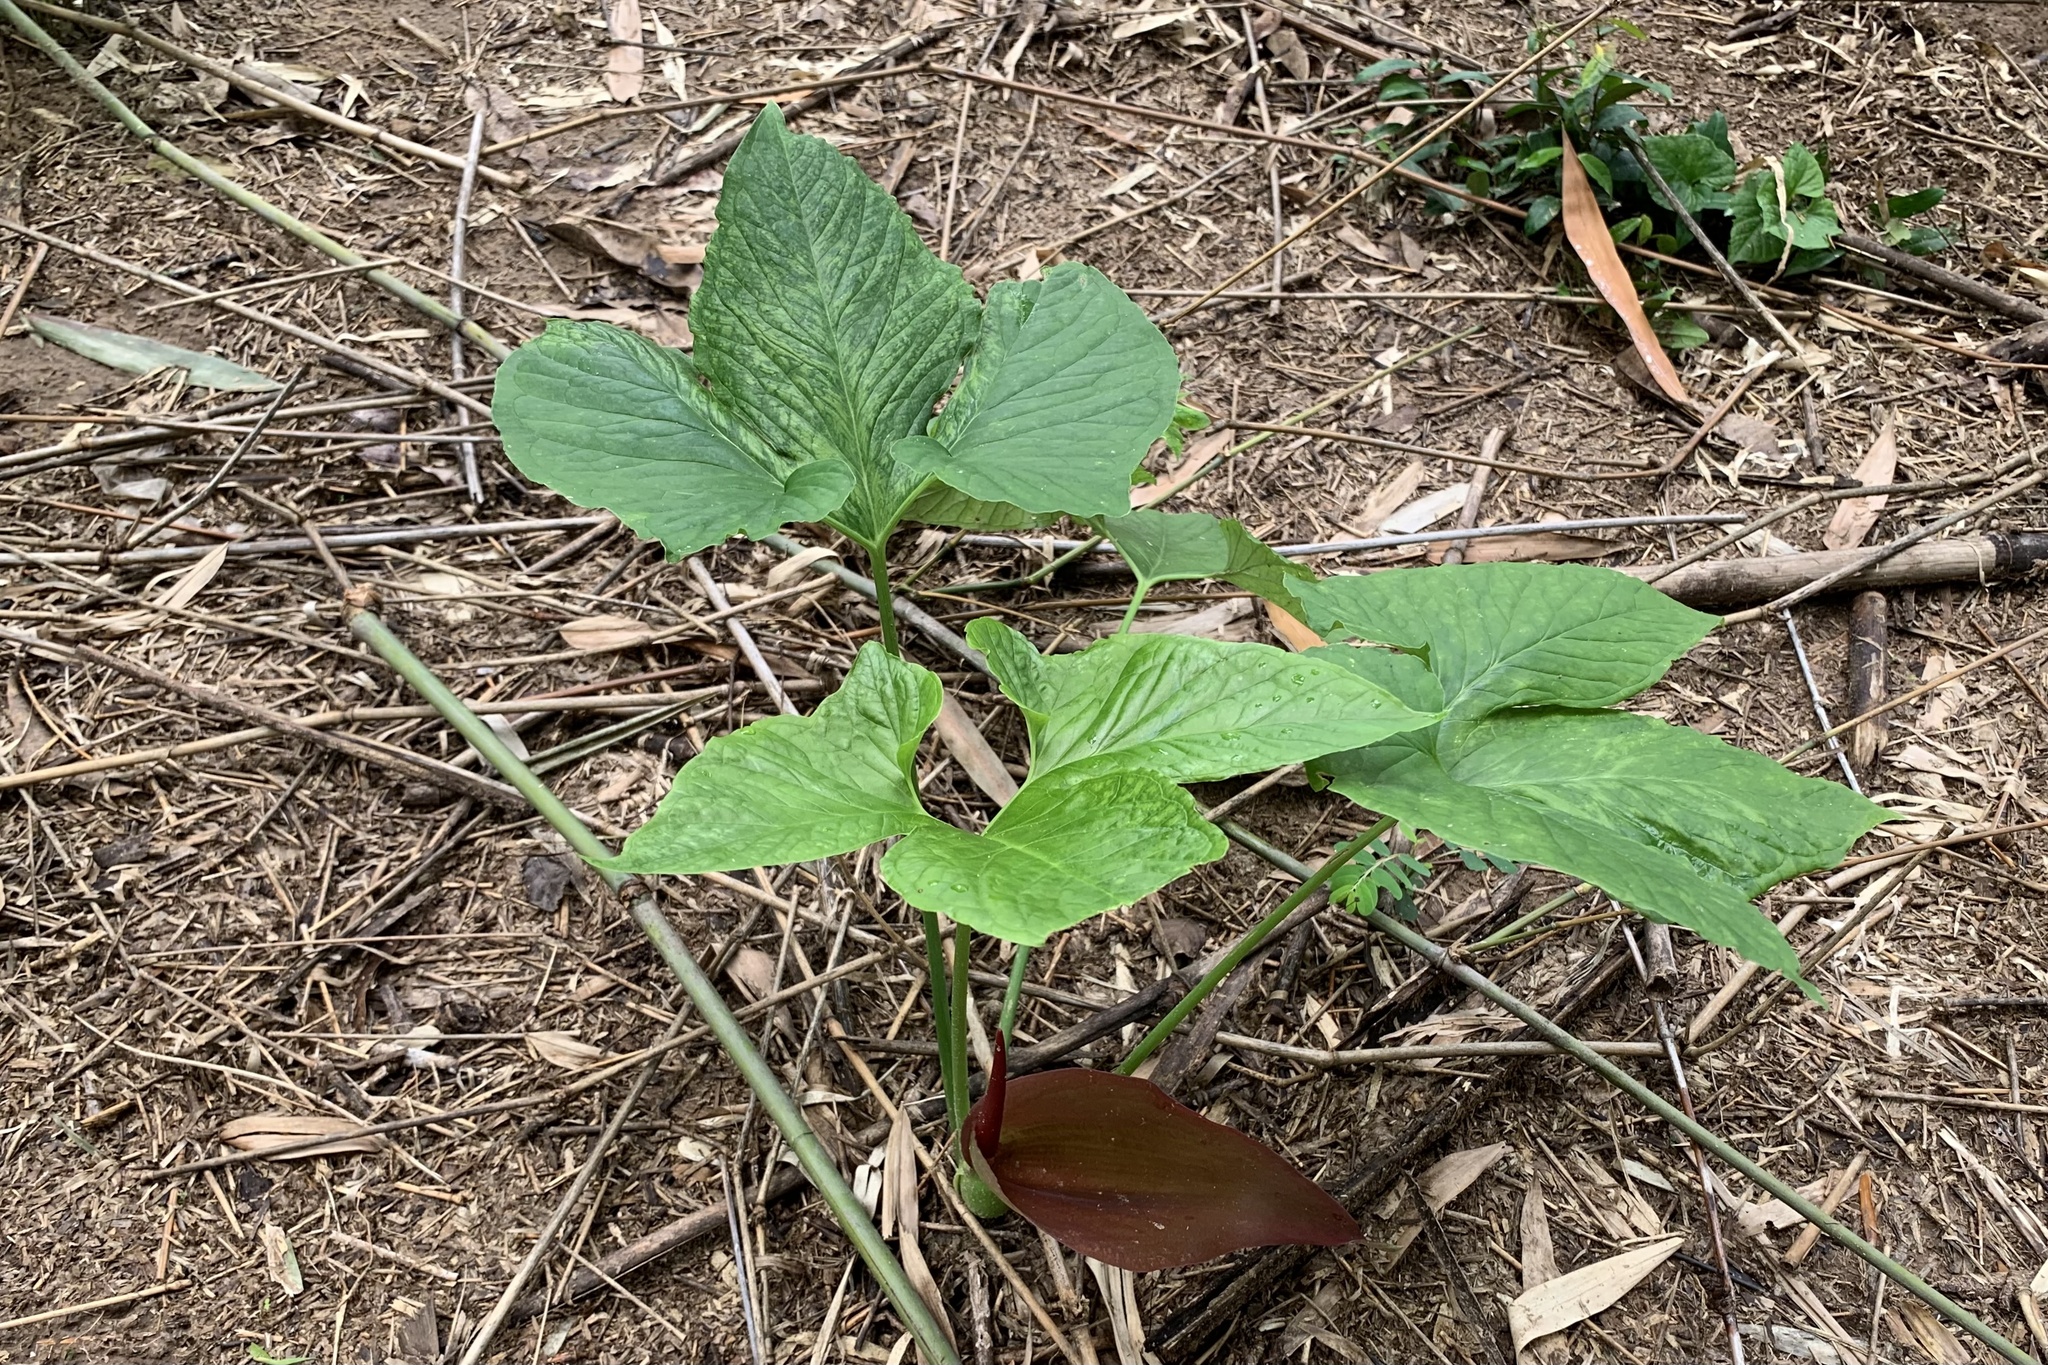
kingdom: Plantae
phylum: Tracheophyta
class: Liliopsida
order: Alismatales
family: Araceae
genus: Typhonium
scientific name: Typhonium blumei
